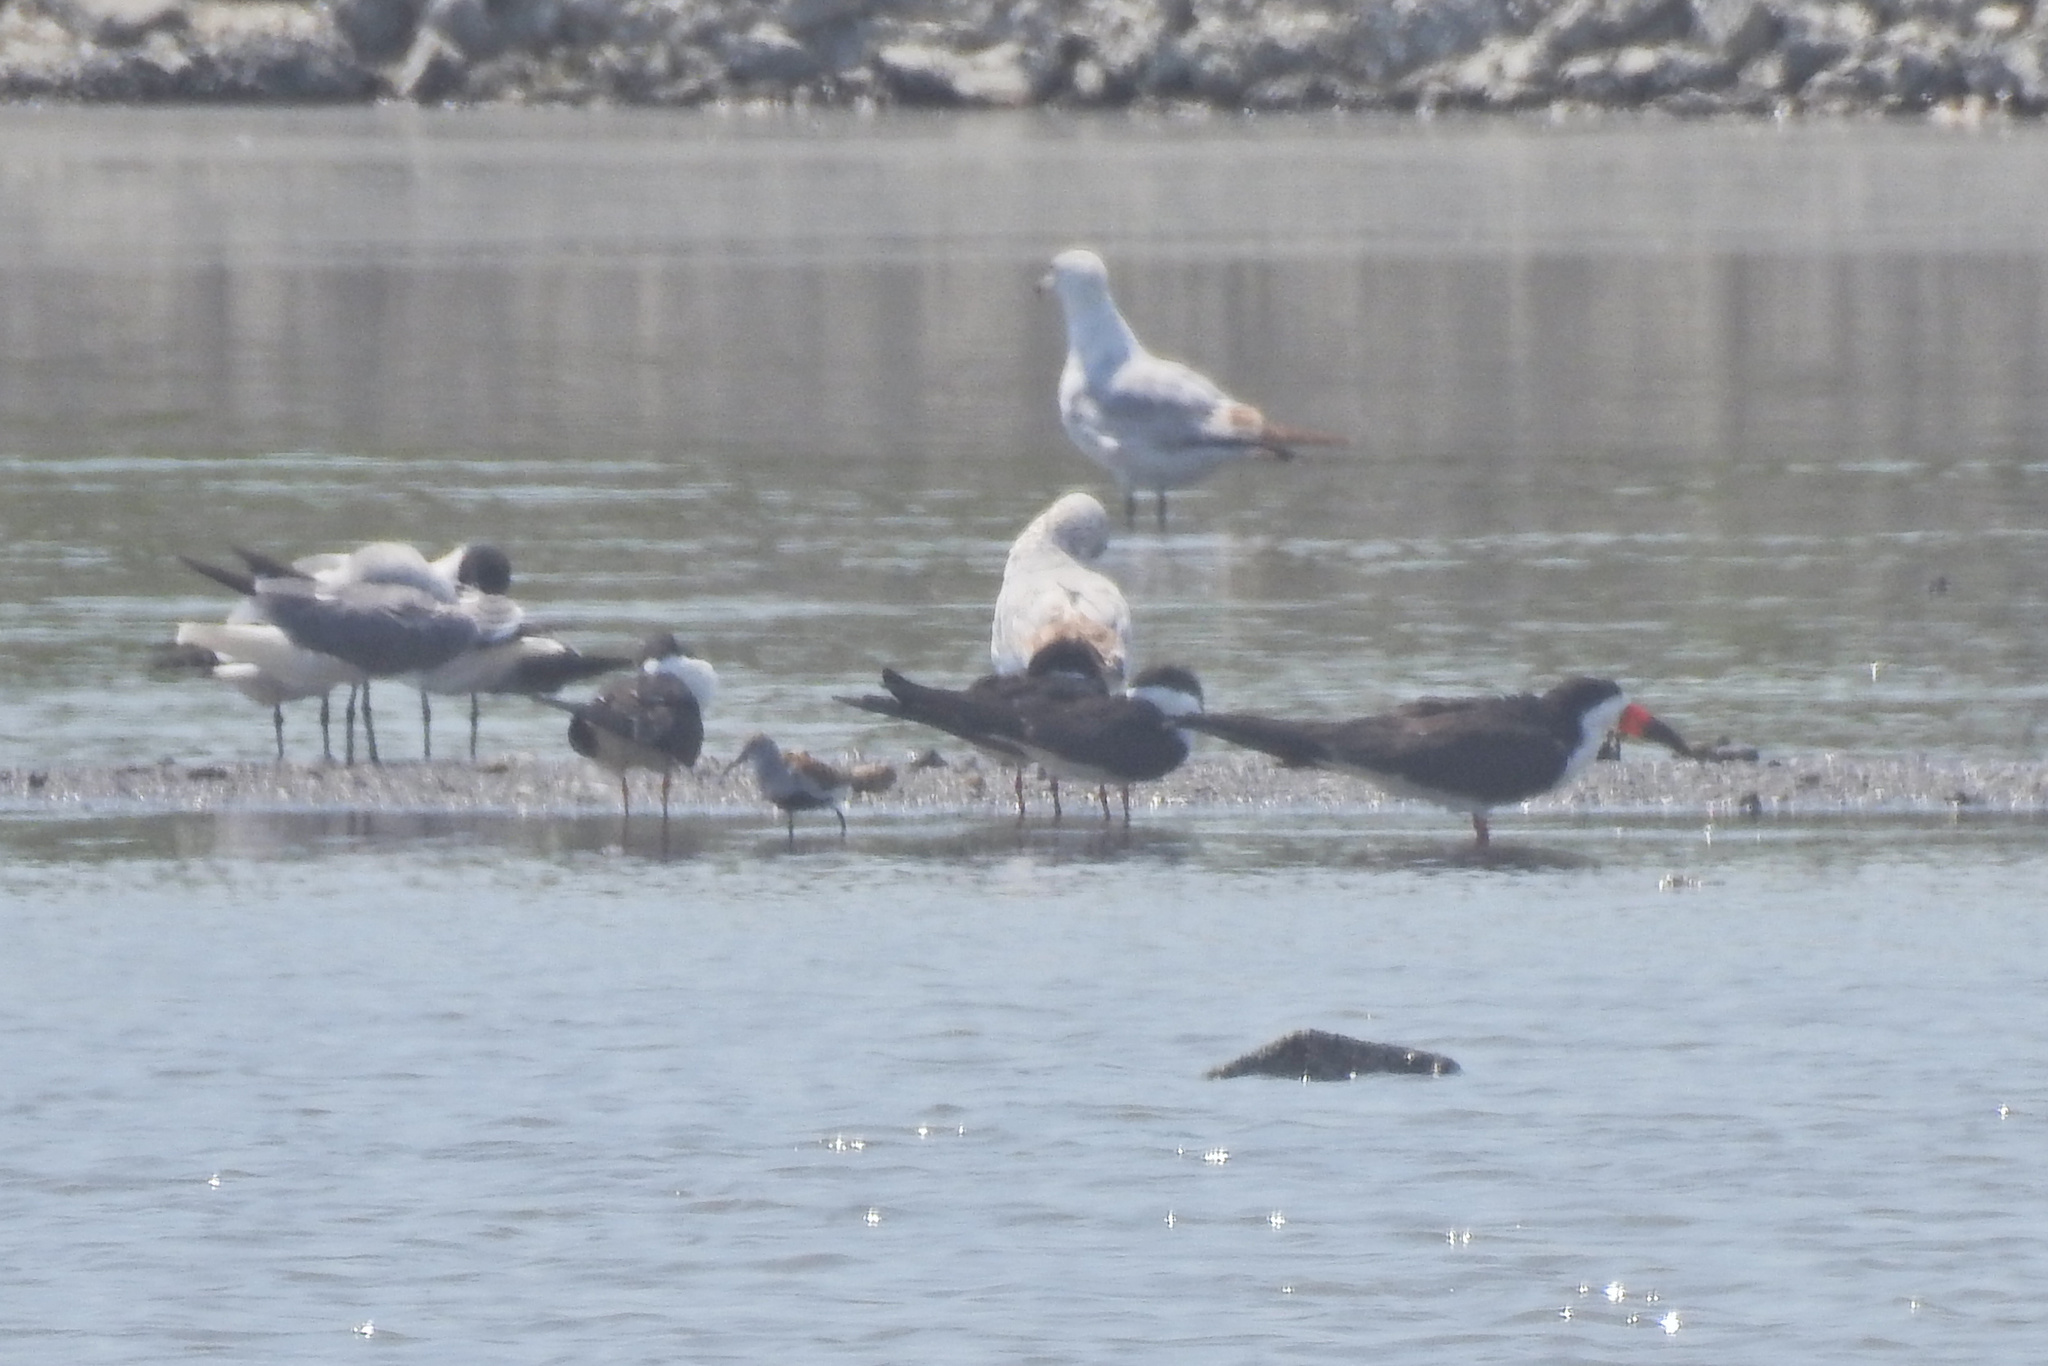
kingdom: Animalia
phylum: Chordata
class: Aves
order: Charadriiformes
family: Laridae
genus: Rynchops
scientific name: Rynchops niger
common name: Black skimmer
